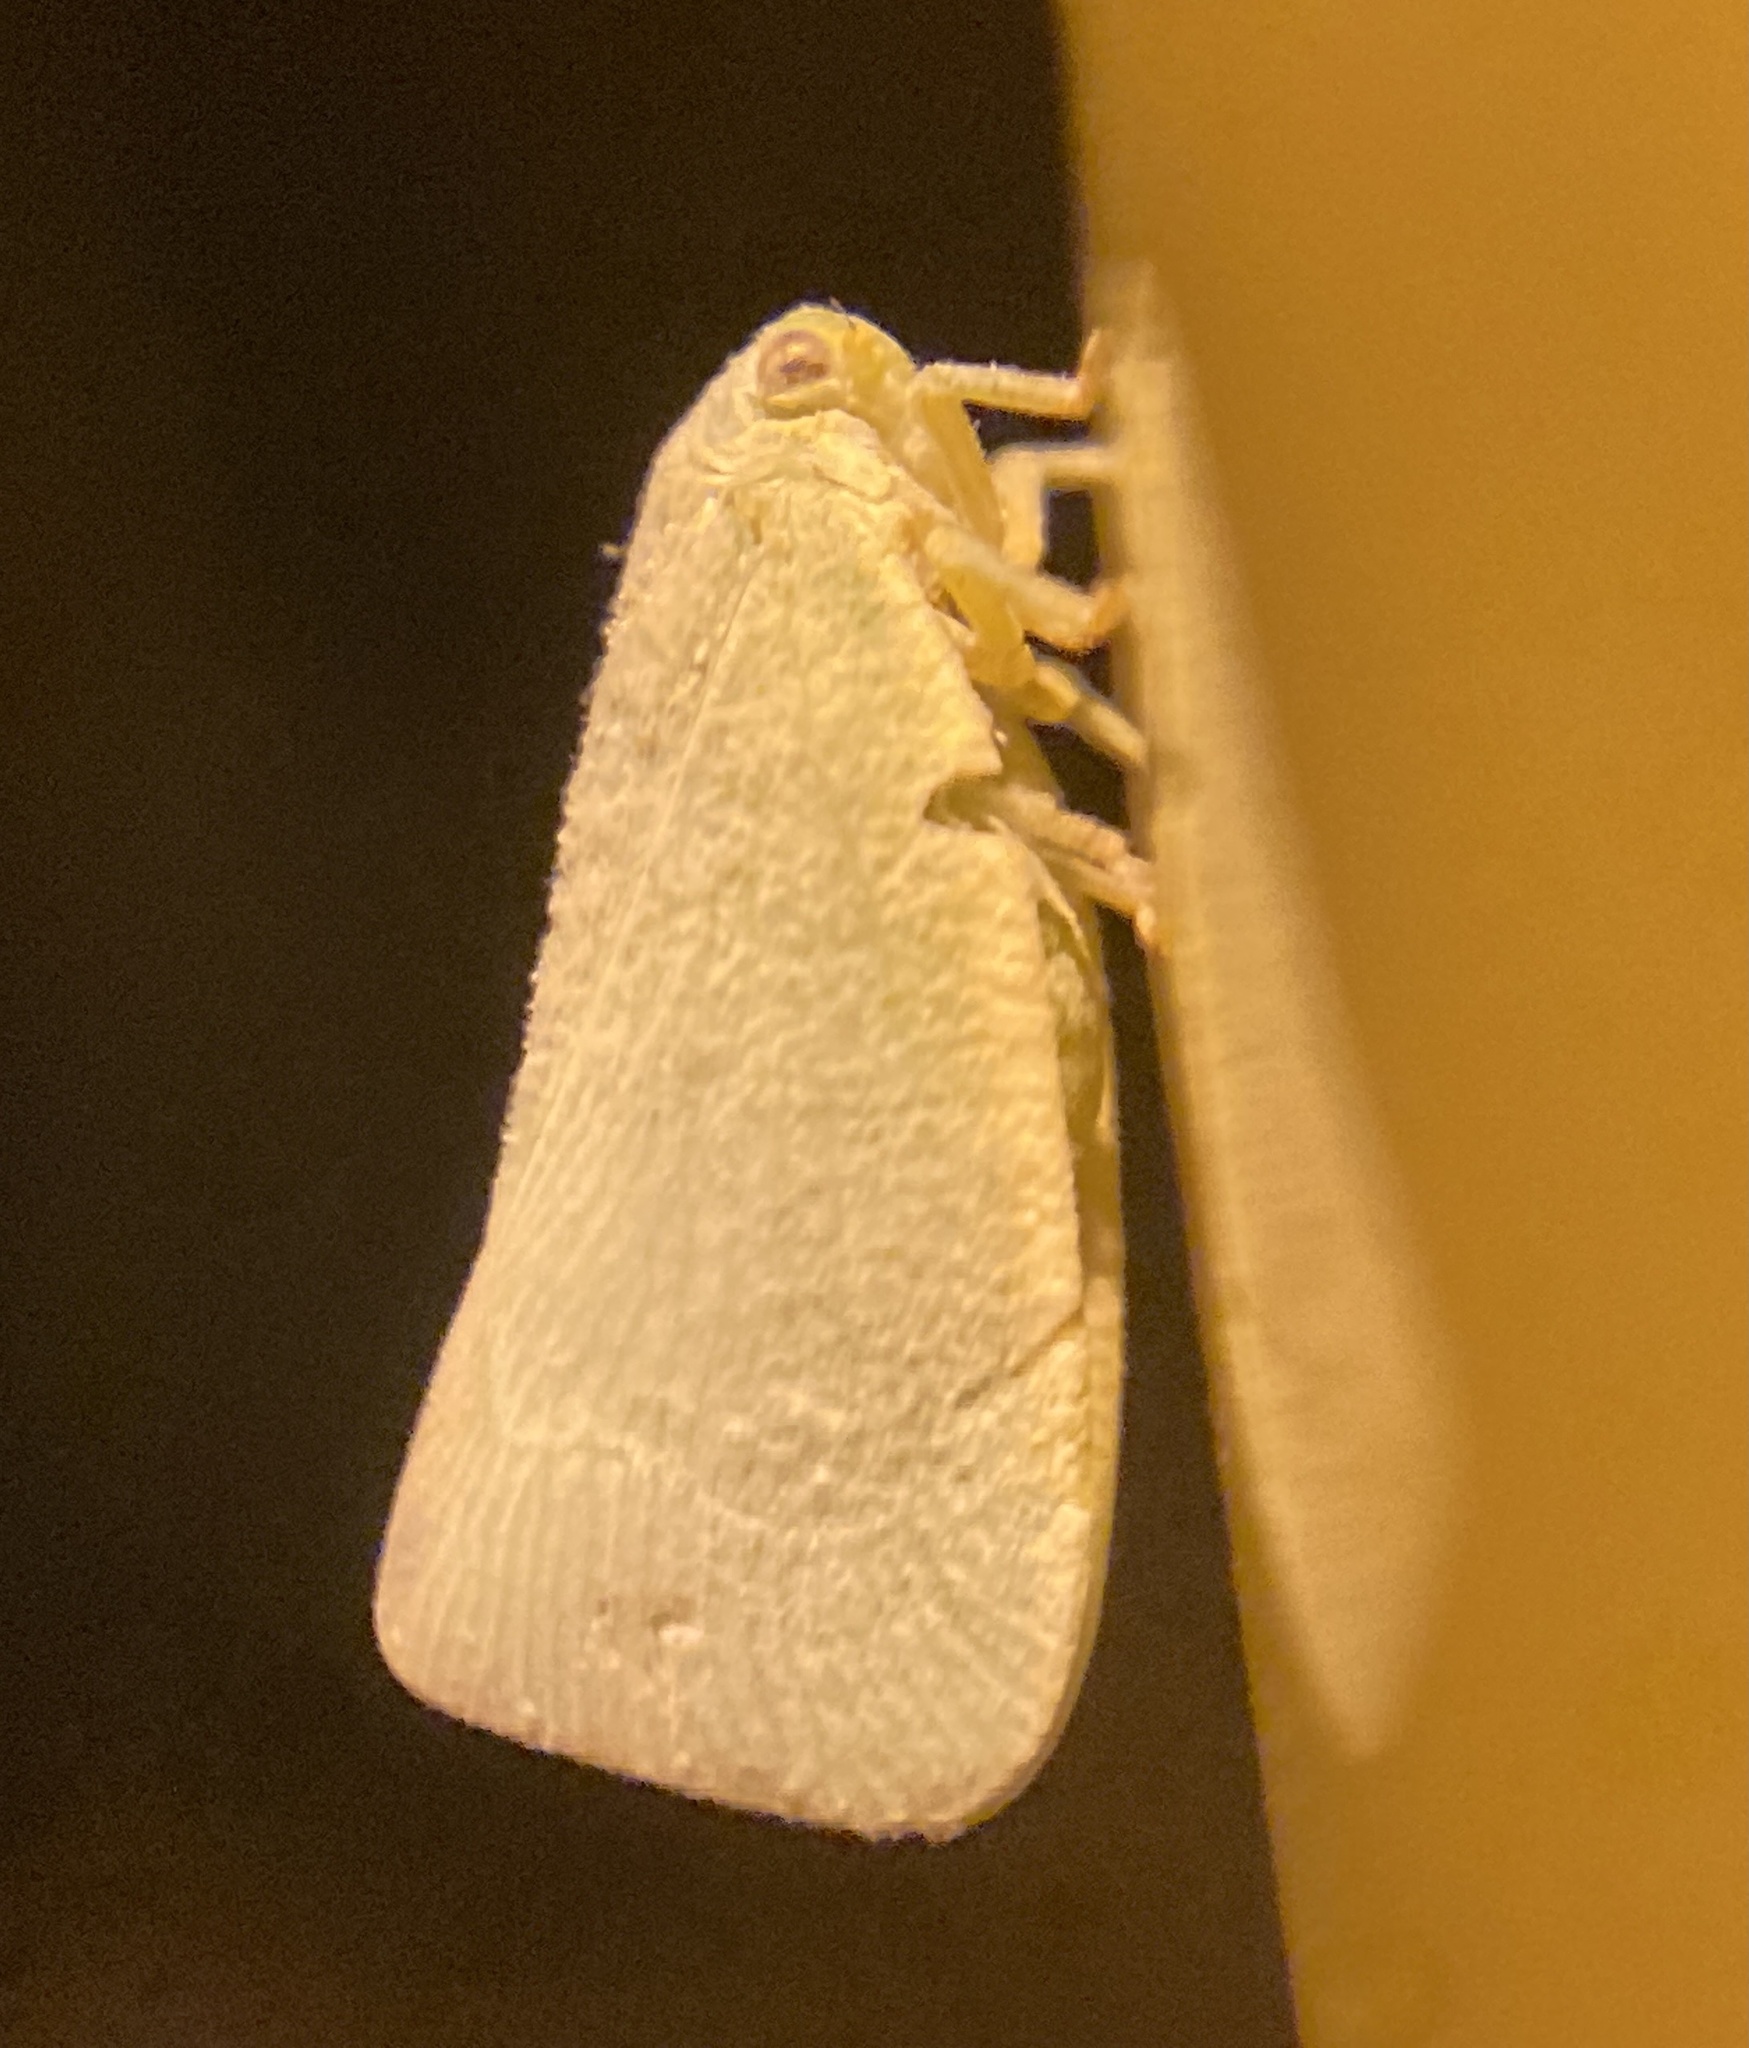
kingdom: Animalia
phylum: Arthropoda
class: Insecta
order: Hemiptera
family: Flatidae
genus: Flatormenis
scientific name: Flatormenis proxima
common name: Northern flatid planthopper
